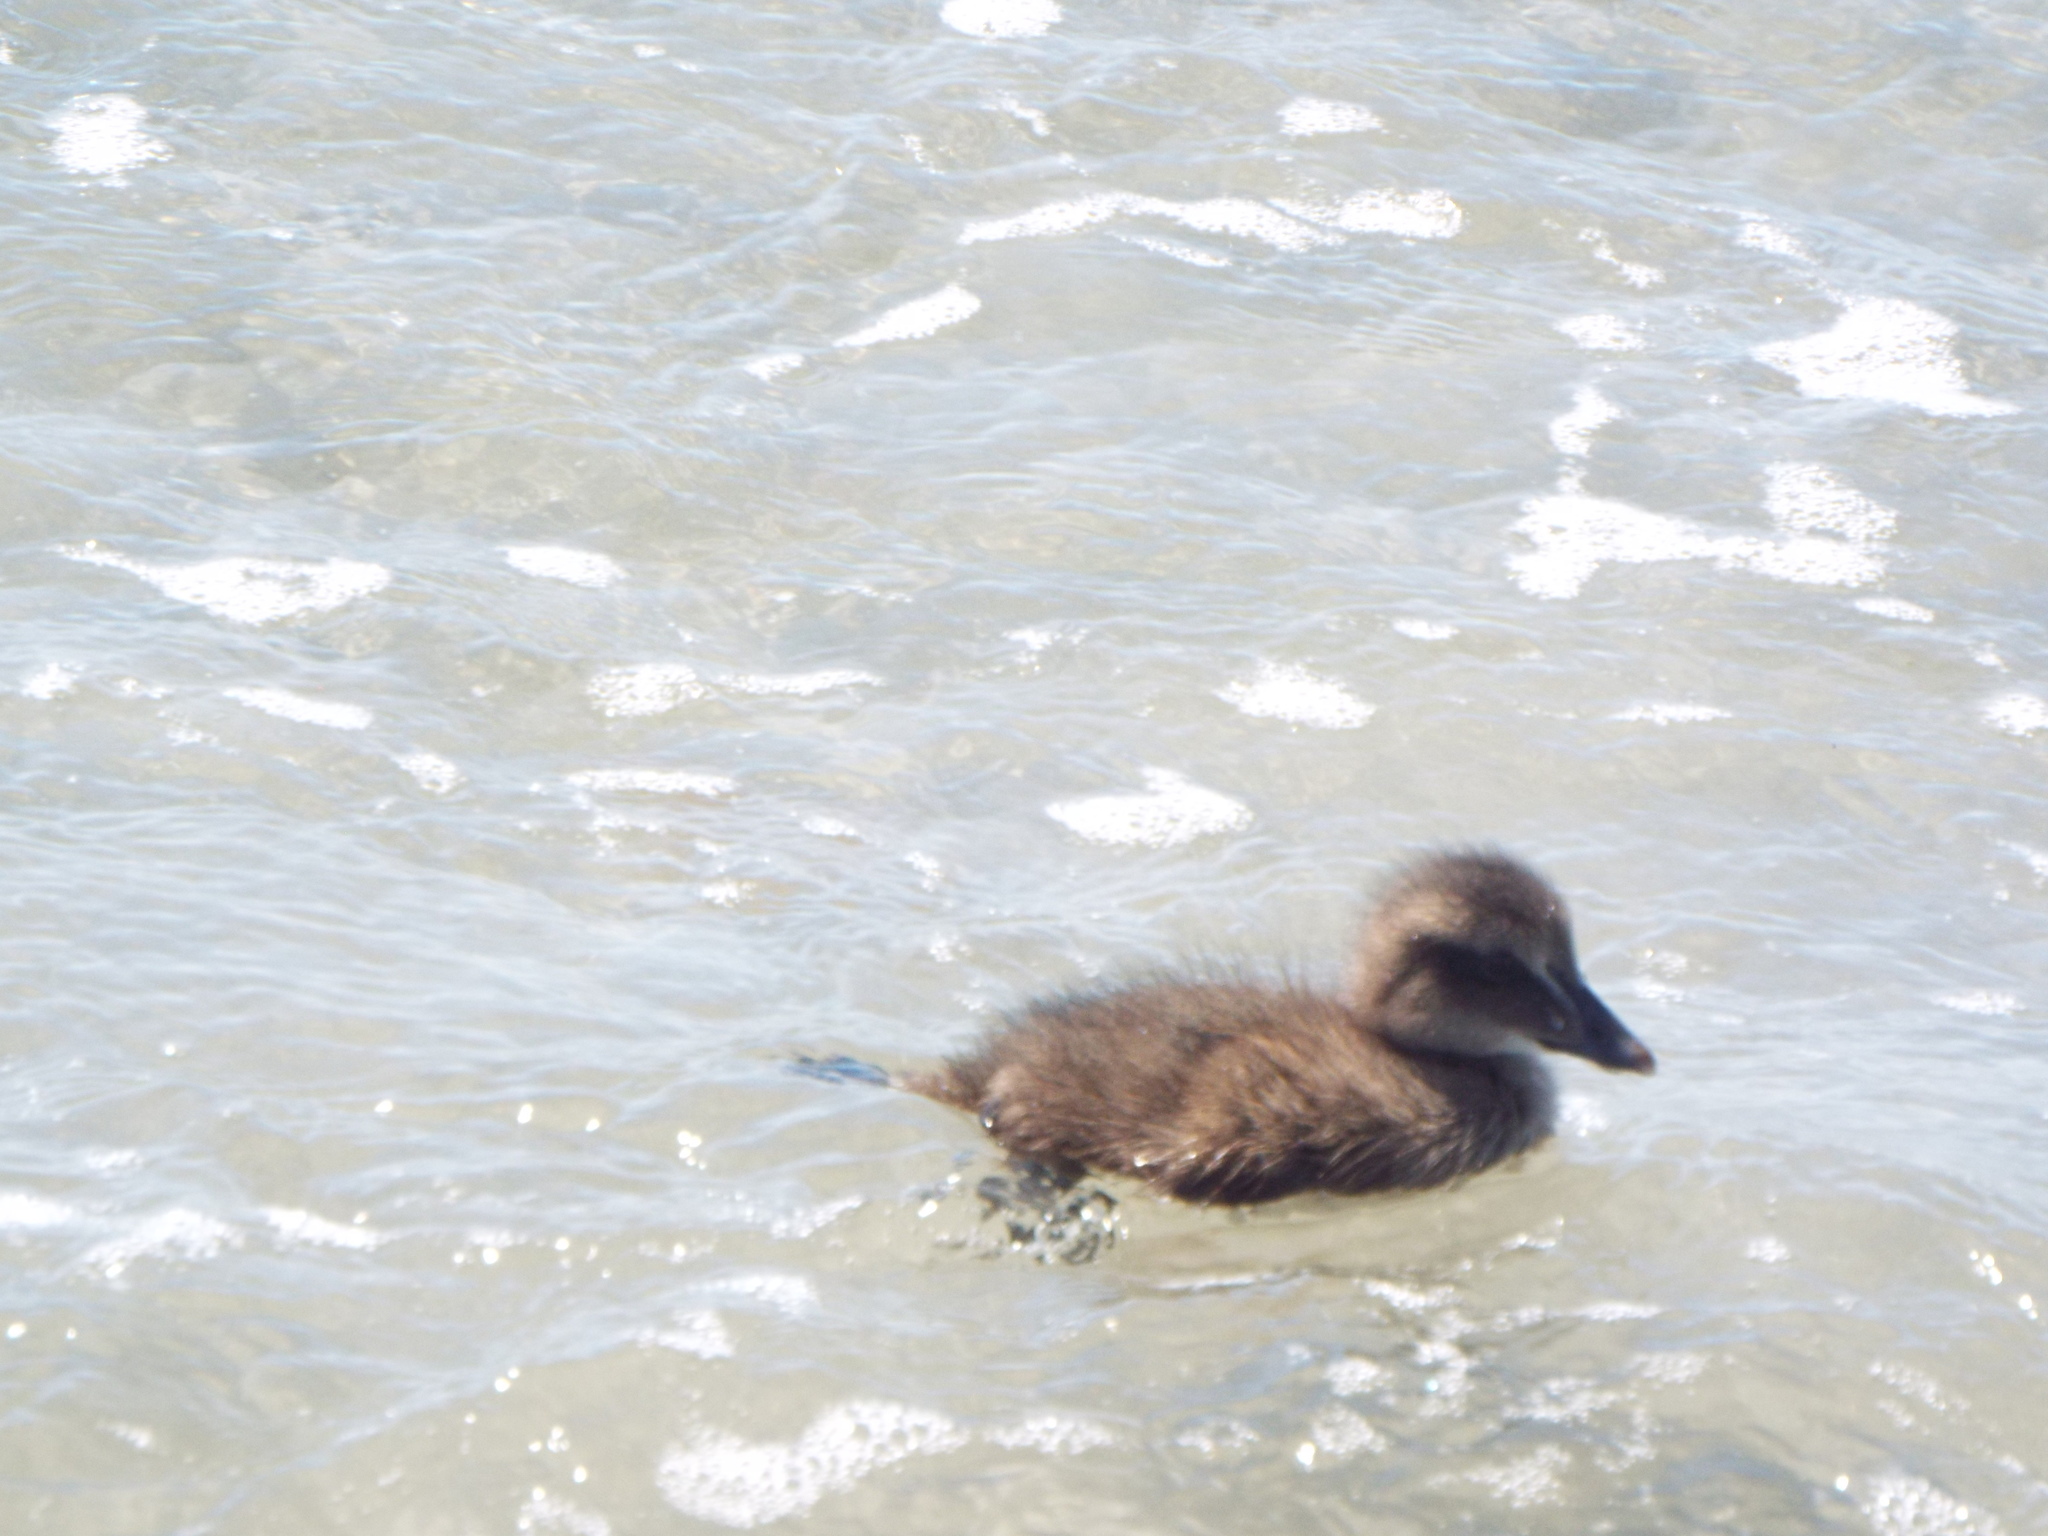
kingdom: Animalia
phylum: Chordata
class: Aves
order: Anseriformes
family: Anatidae
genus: Somateria
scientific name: Somateria mollissima
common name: Common eider
